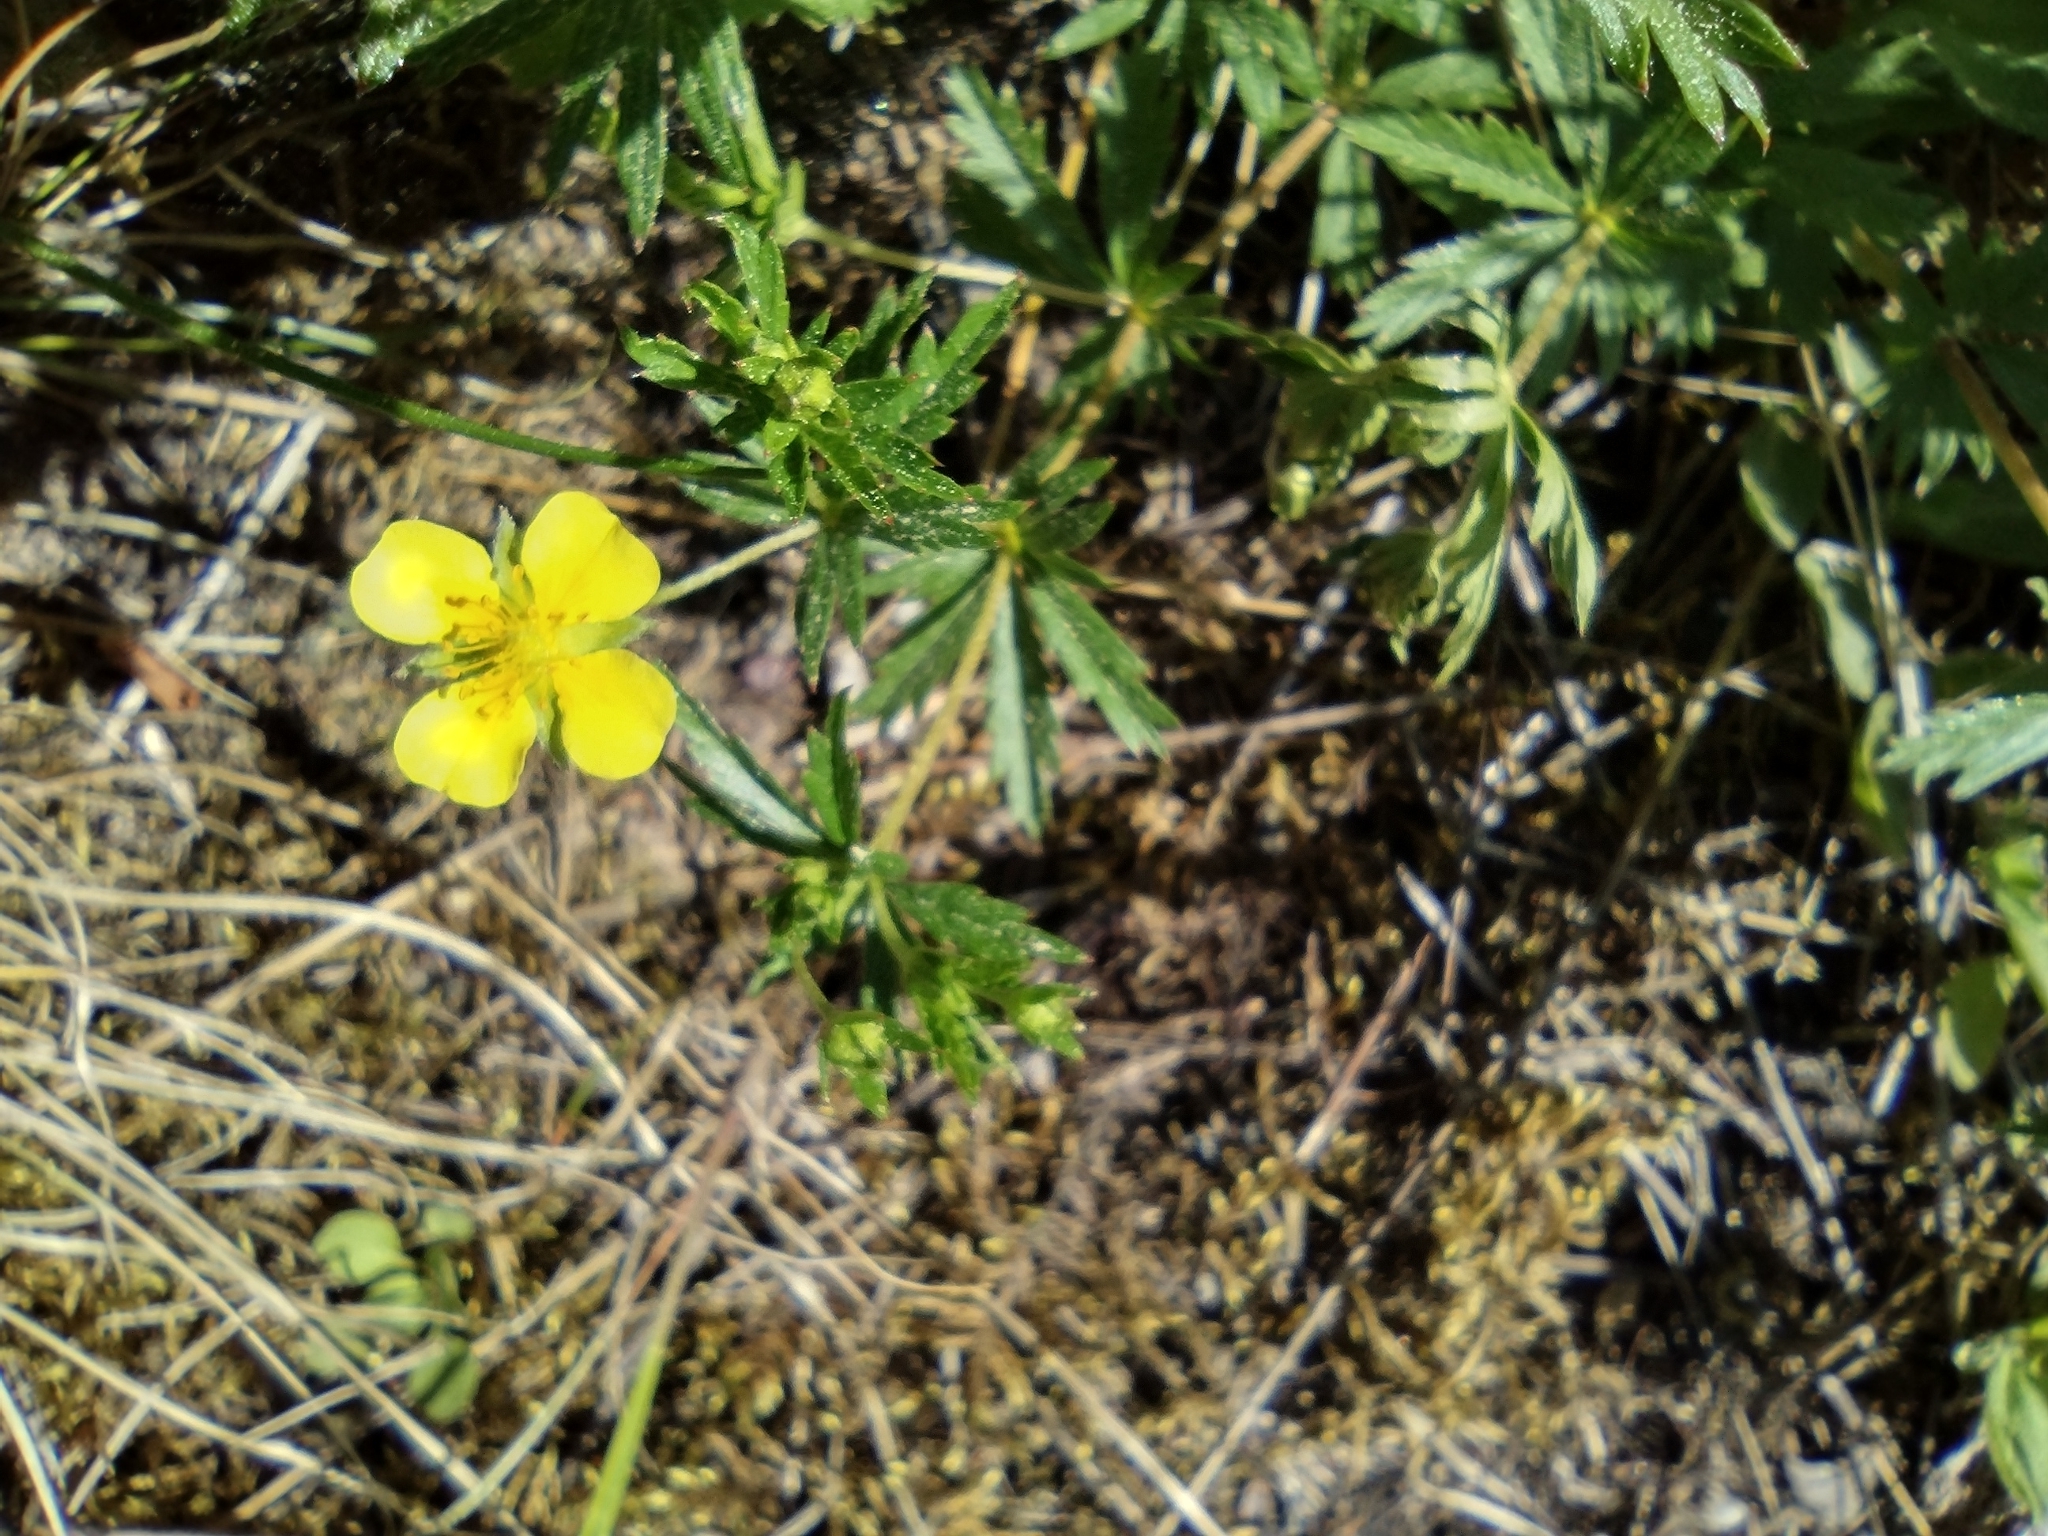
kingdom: Plantae
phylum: Tracheophyta
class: Magnoliopsida
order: Rosales
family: Rosaceae
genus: Potentilla
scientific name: Potentilla erecta
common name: Tormentil
